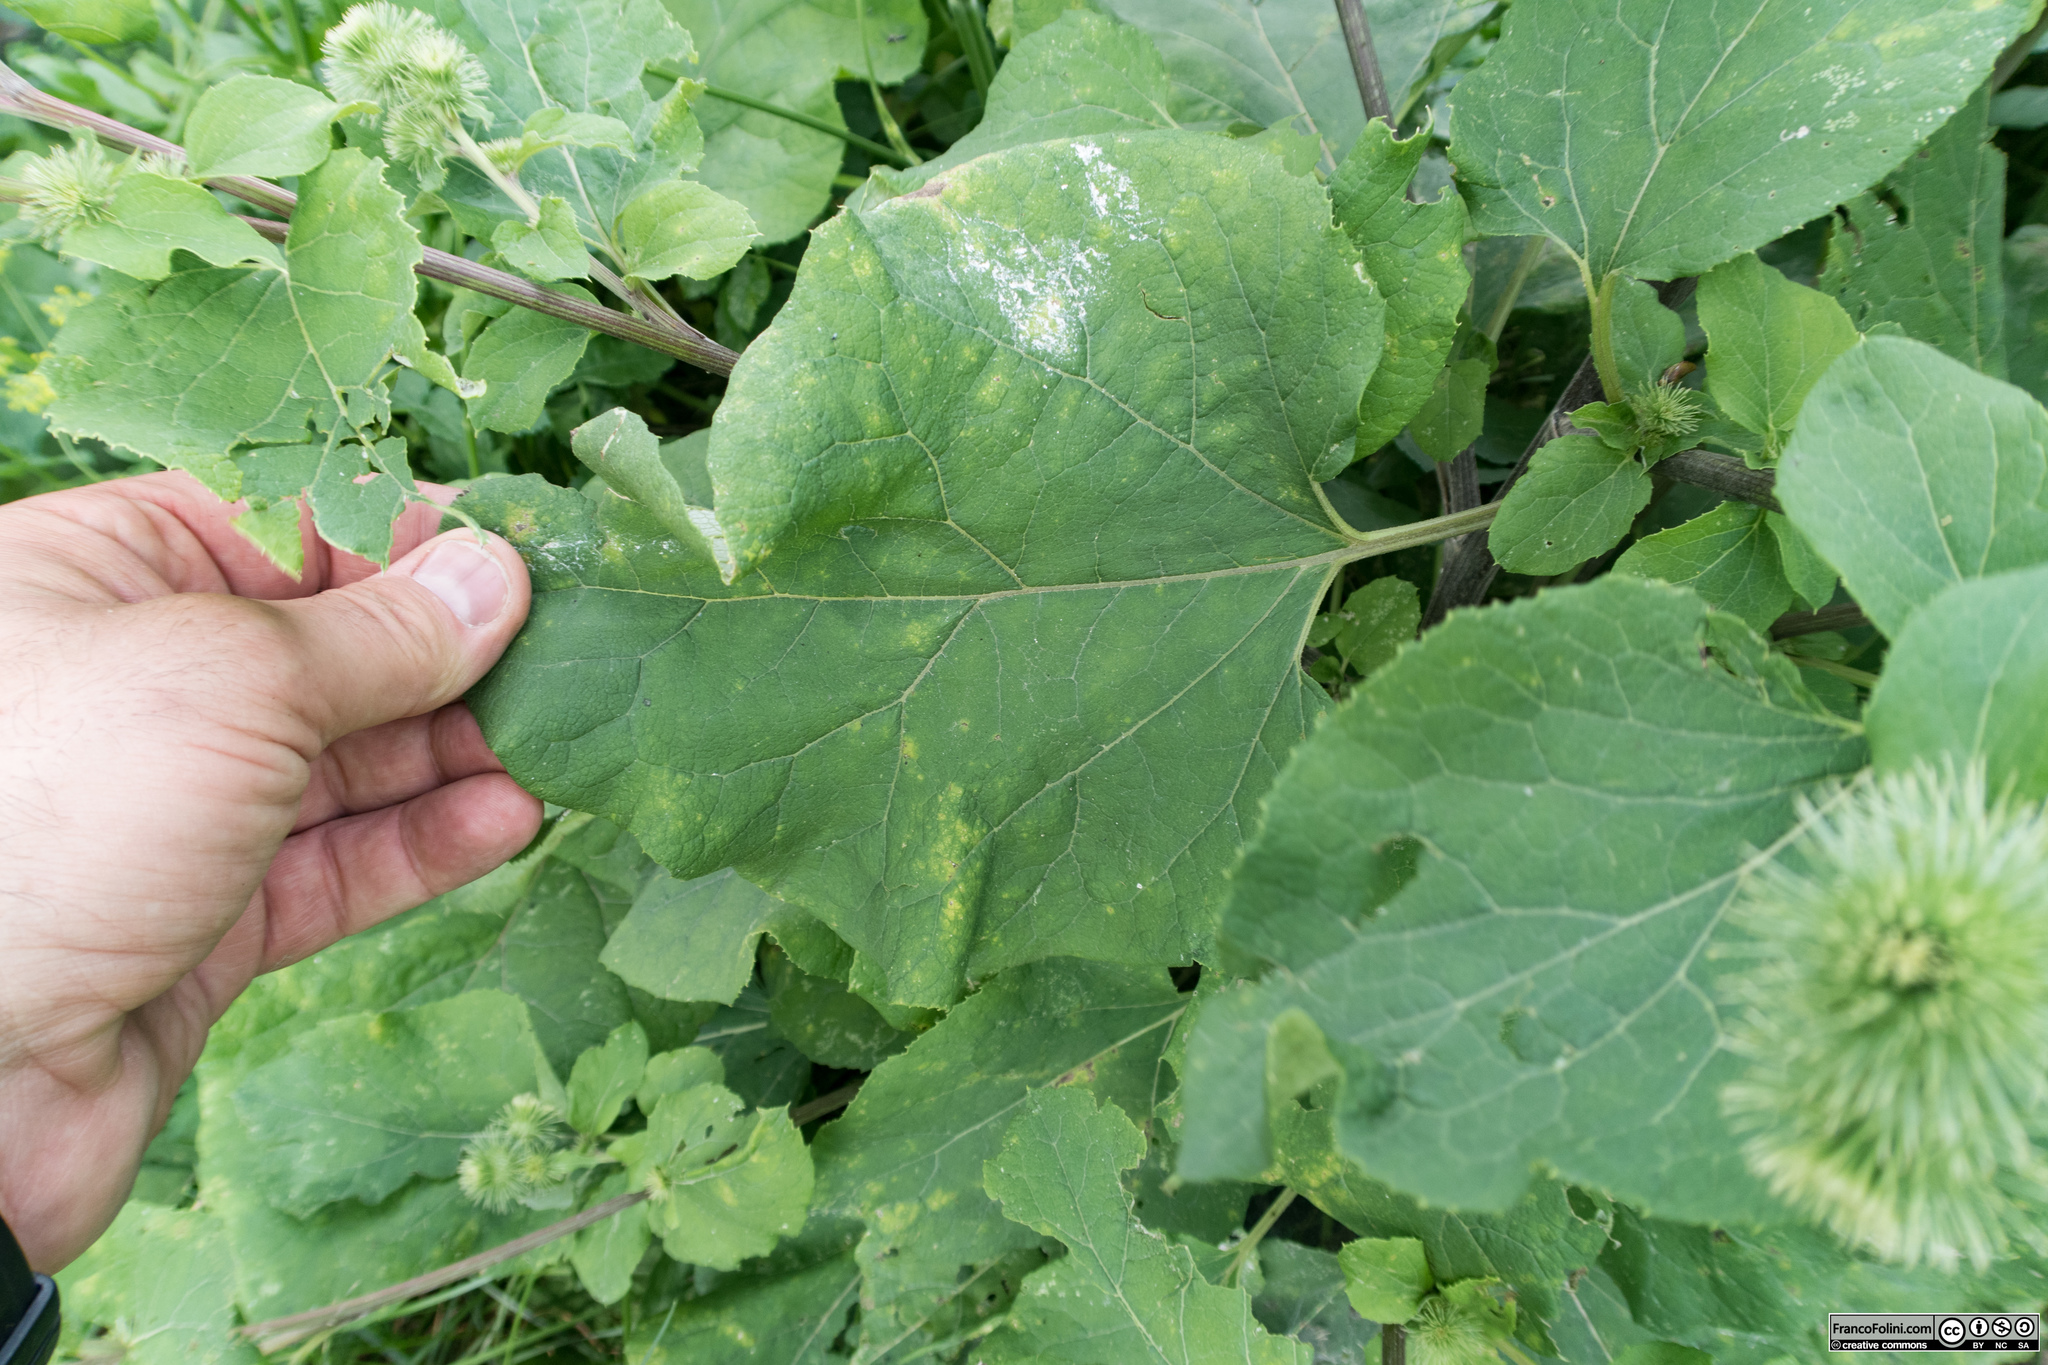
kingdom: Plantae
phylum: Tracheophyta
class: Magnoliopsida
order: Asterales
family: Asteraceae
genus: Arctium
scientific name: Arctium minus
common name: Lesser burdock
